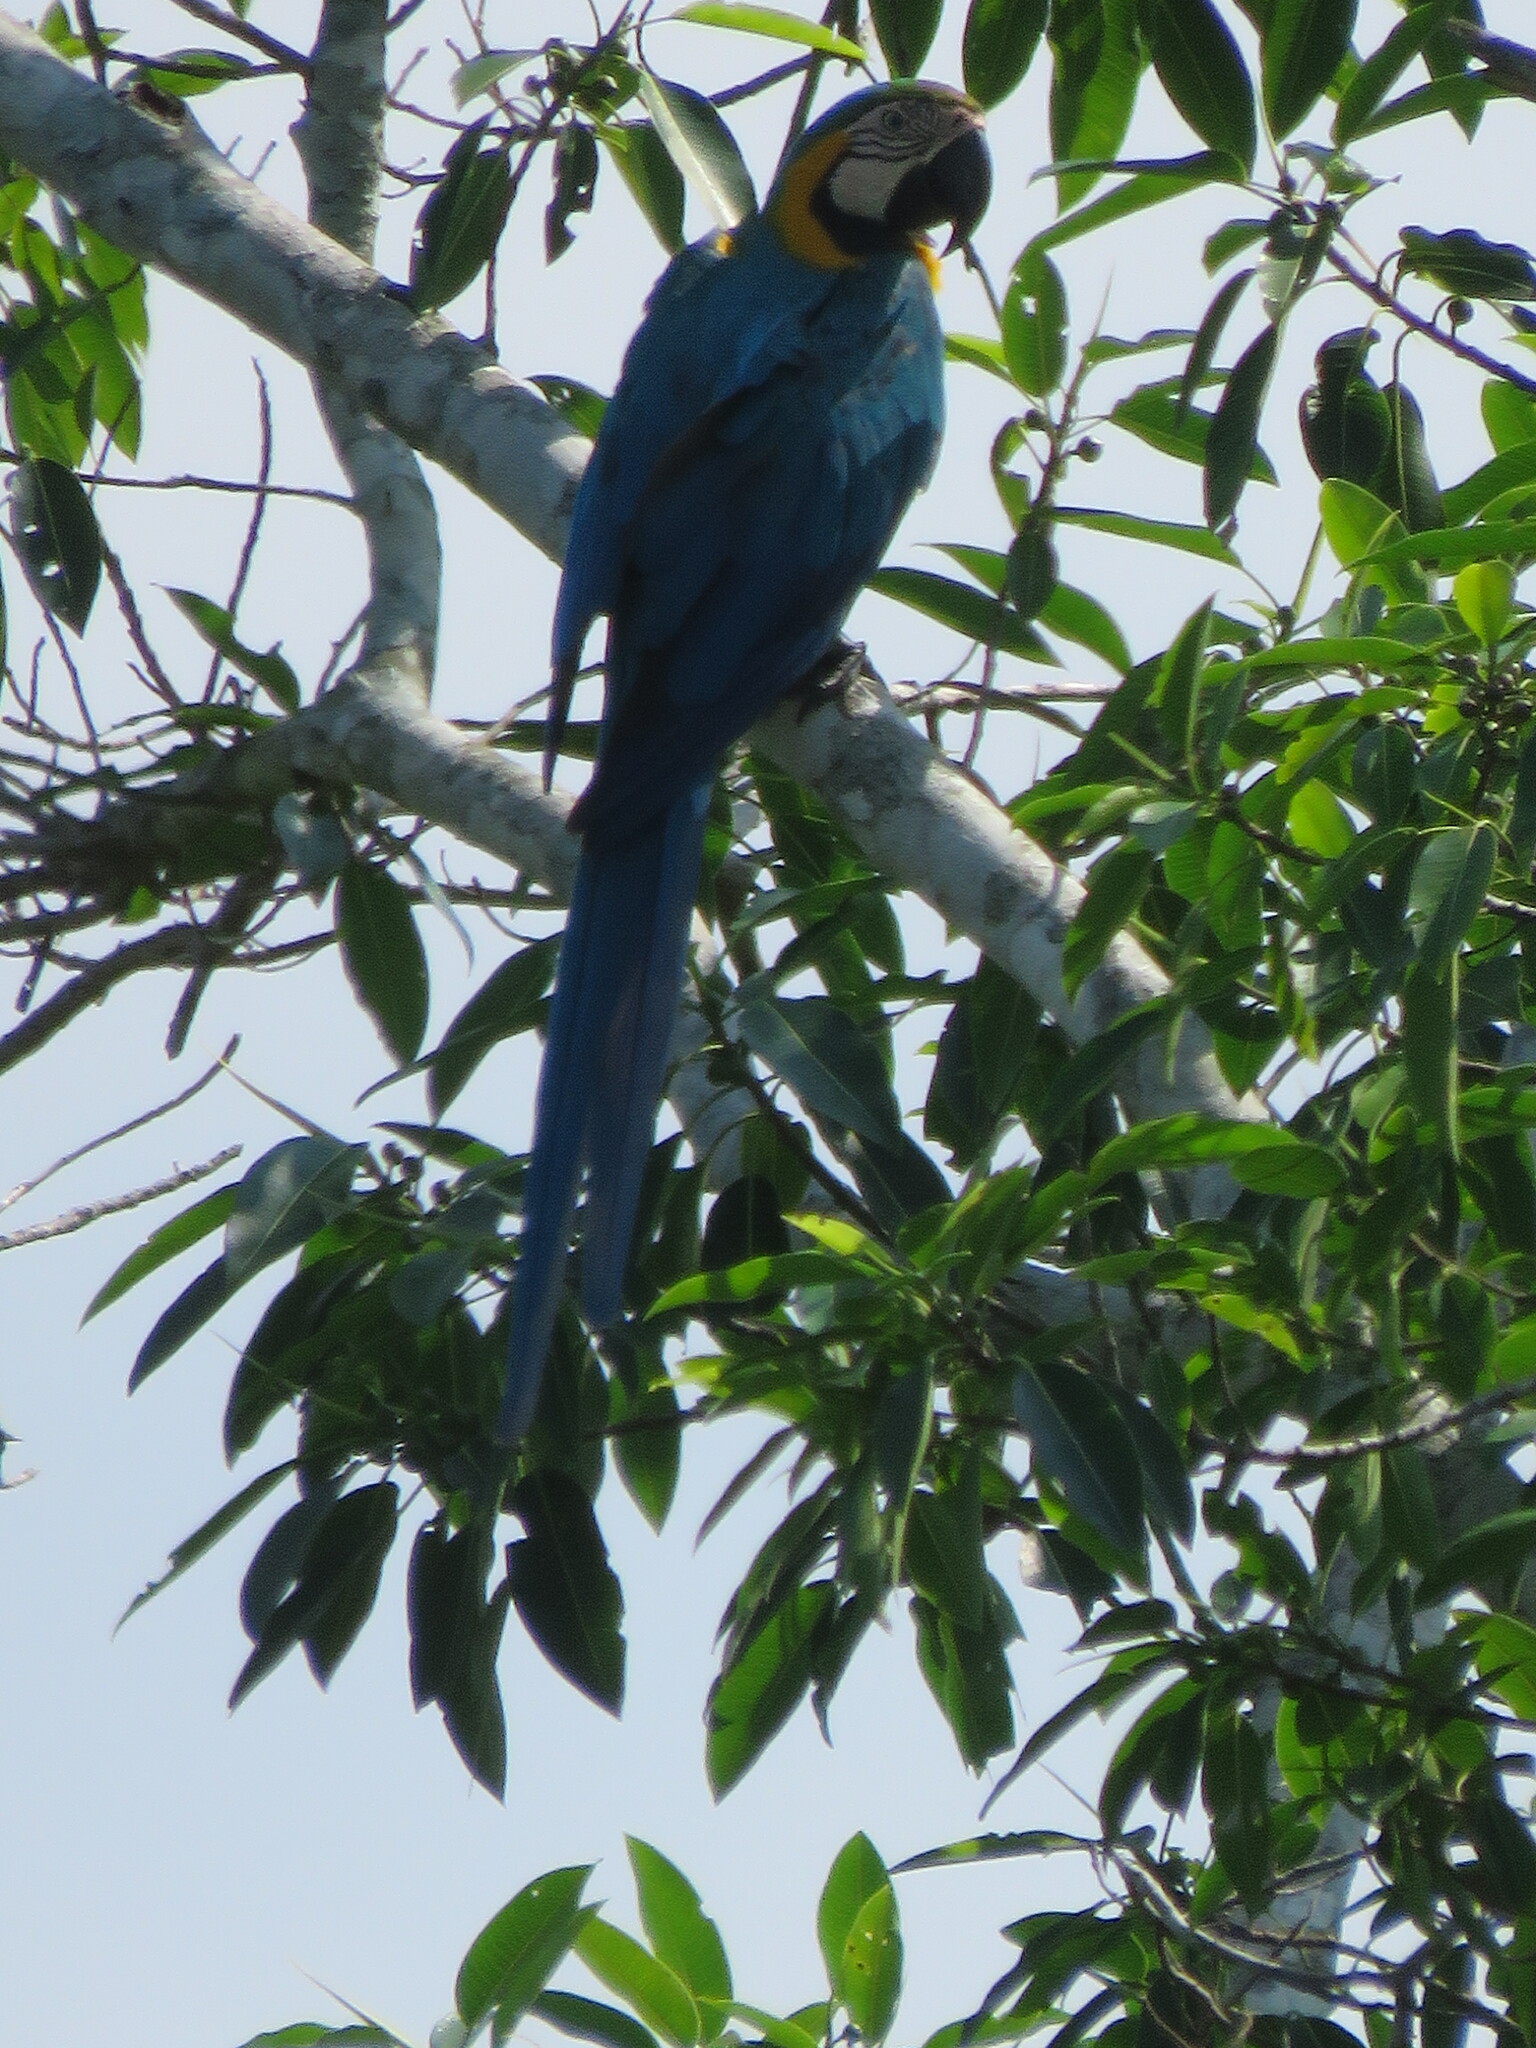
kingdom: Animalia
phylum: Chordata
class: Aves
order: Psittaciformes
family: Psittacidae
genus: Ara
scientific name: Ara ararauna
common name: Blue-and-yellow macaw
